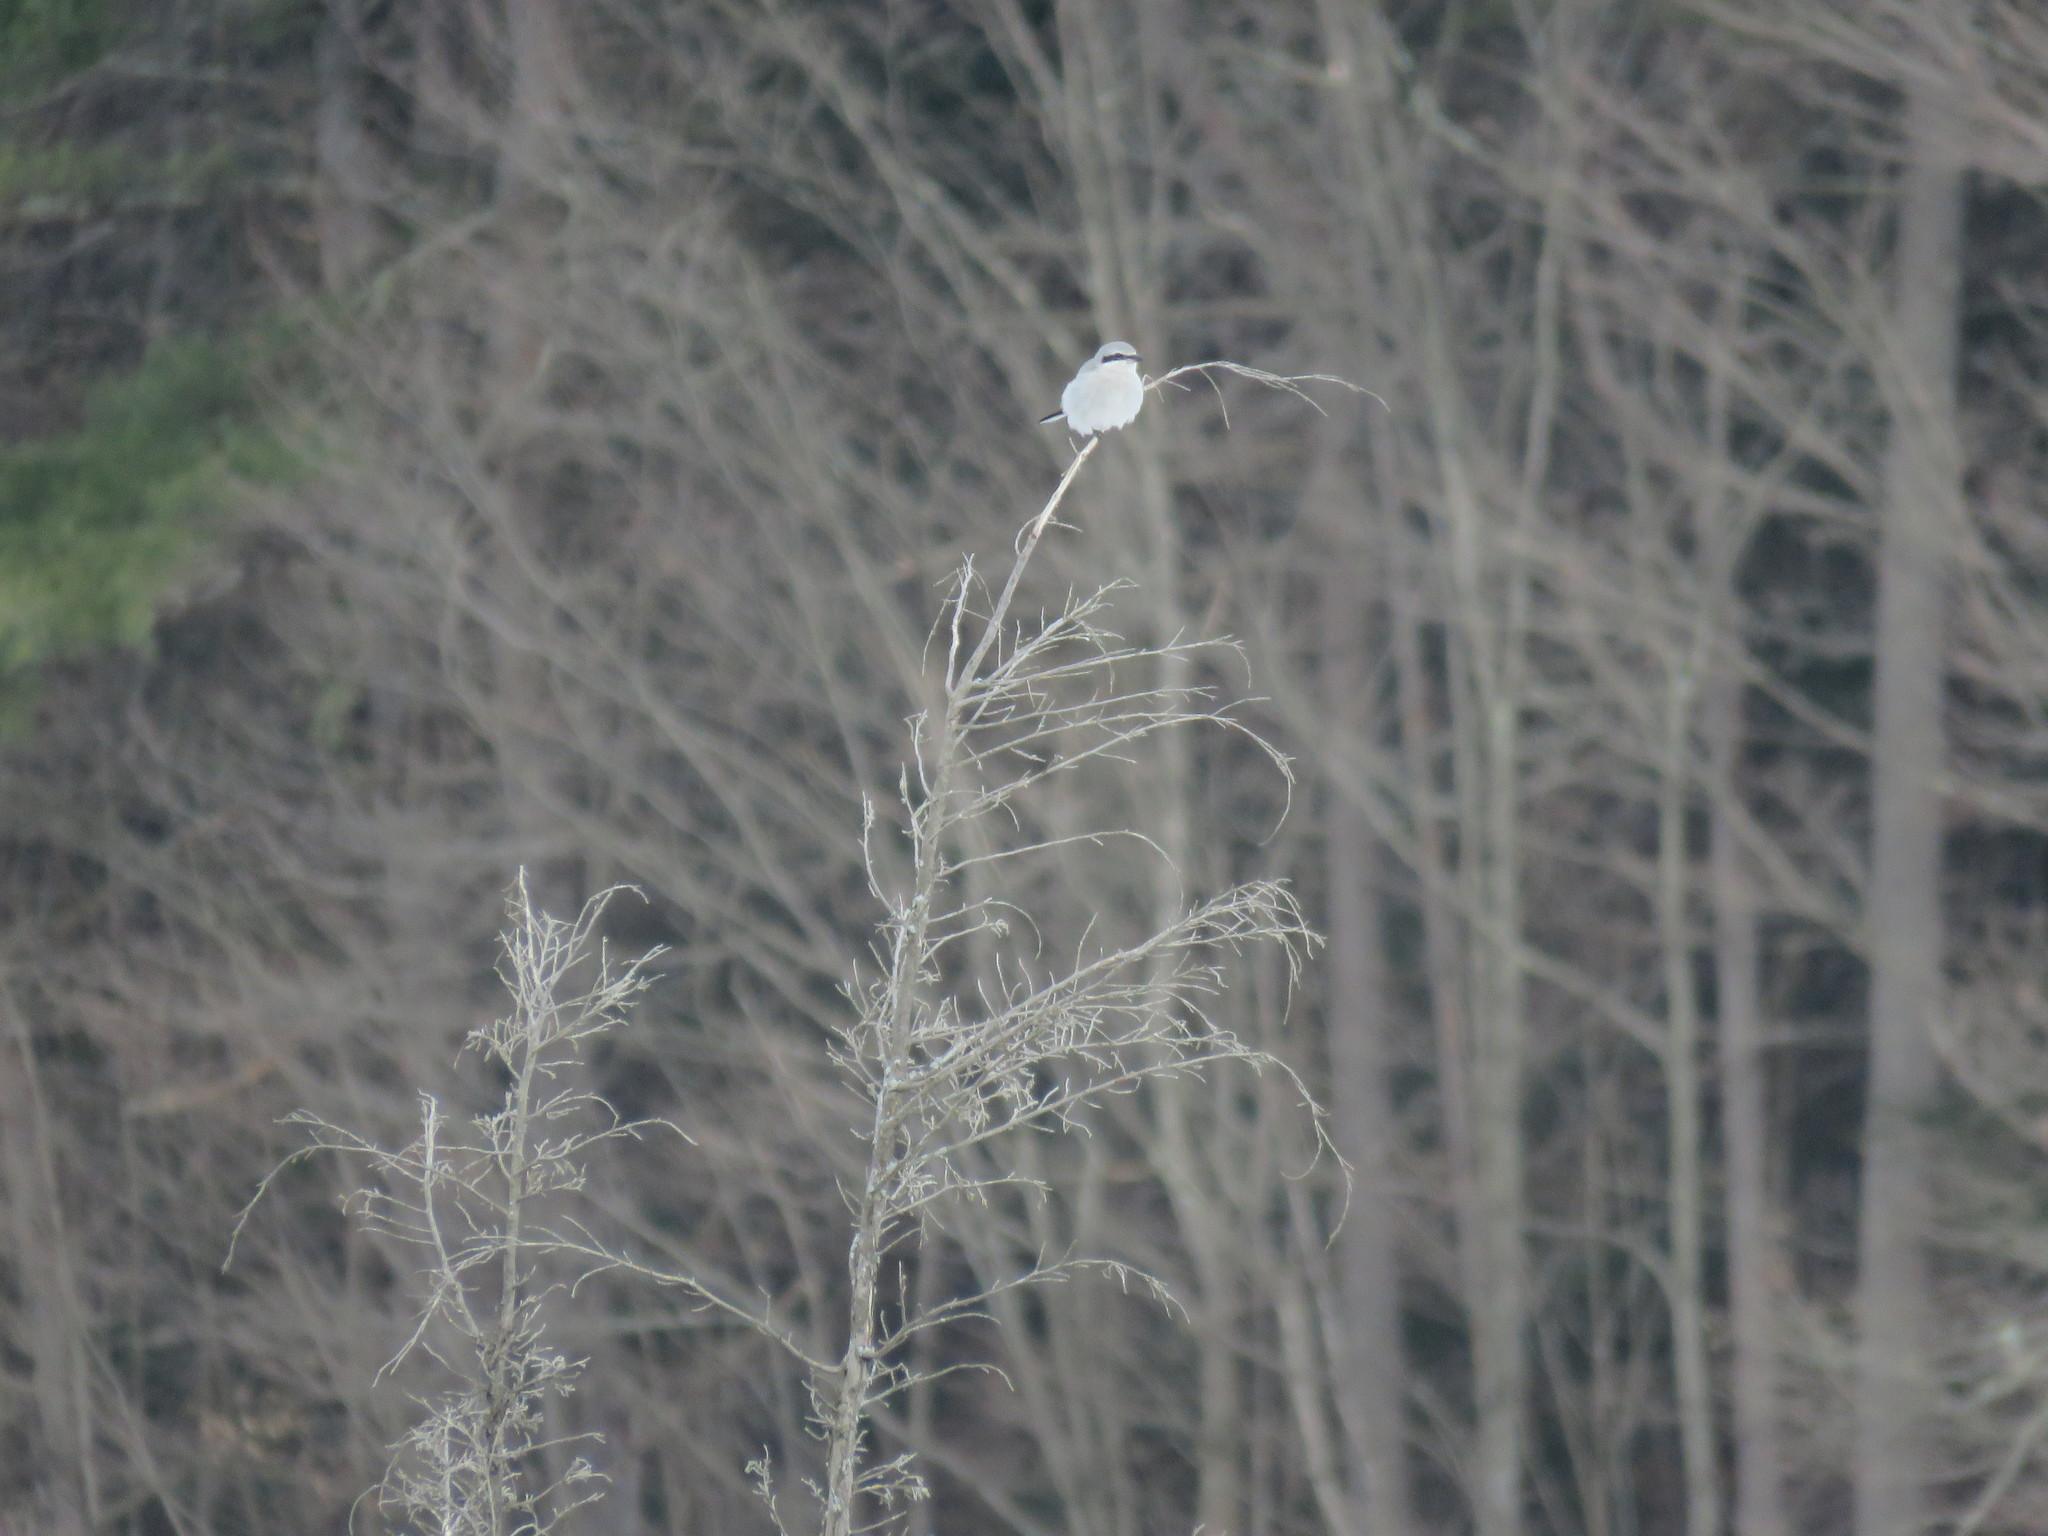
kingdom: Animalia
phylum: Chordata
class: Aves
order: Passeriformes
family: Laniidae
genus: Lanius
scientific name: Lanius borealis
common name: Northern shrike
